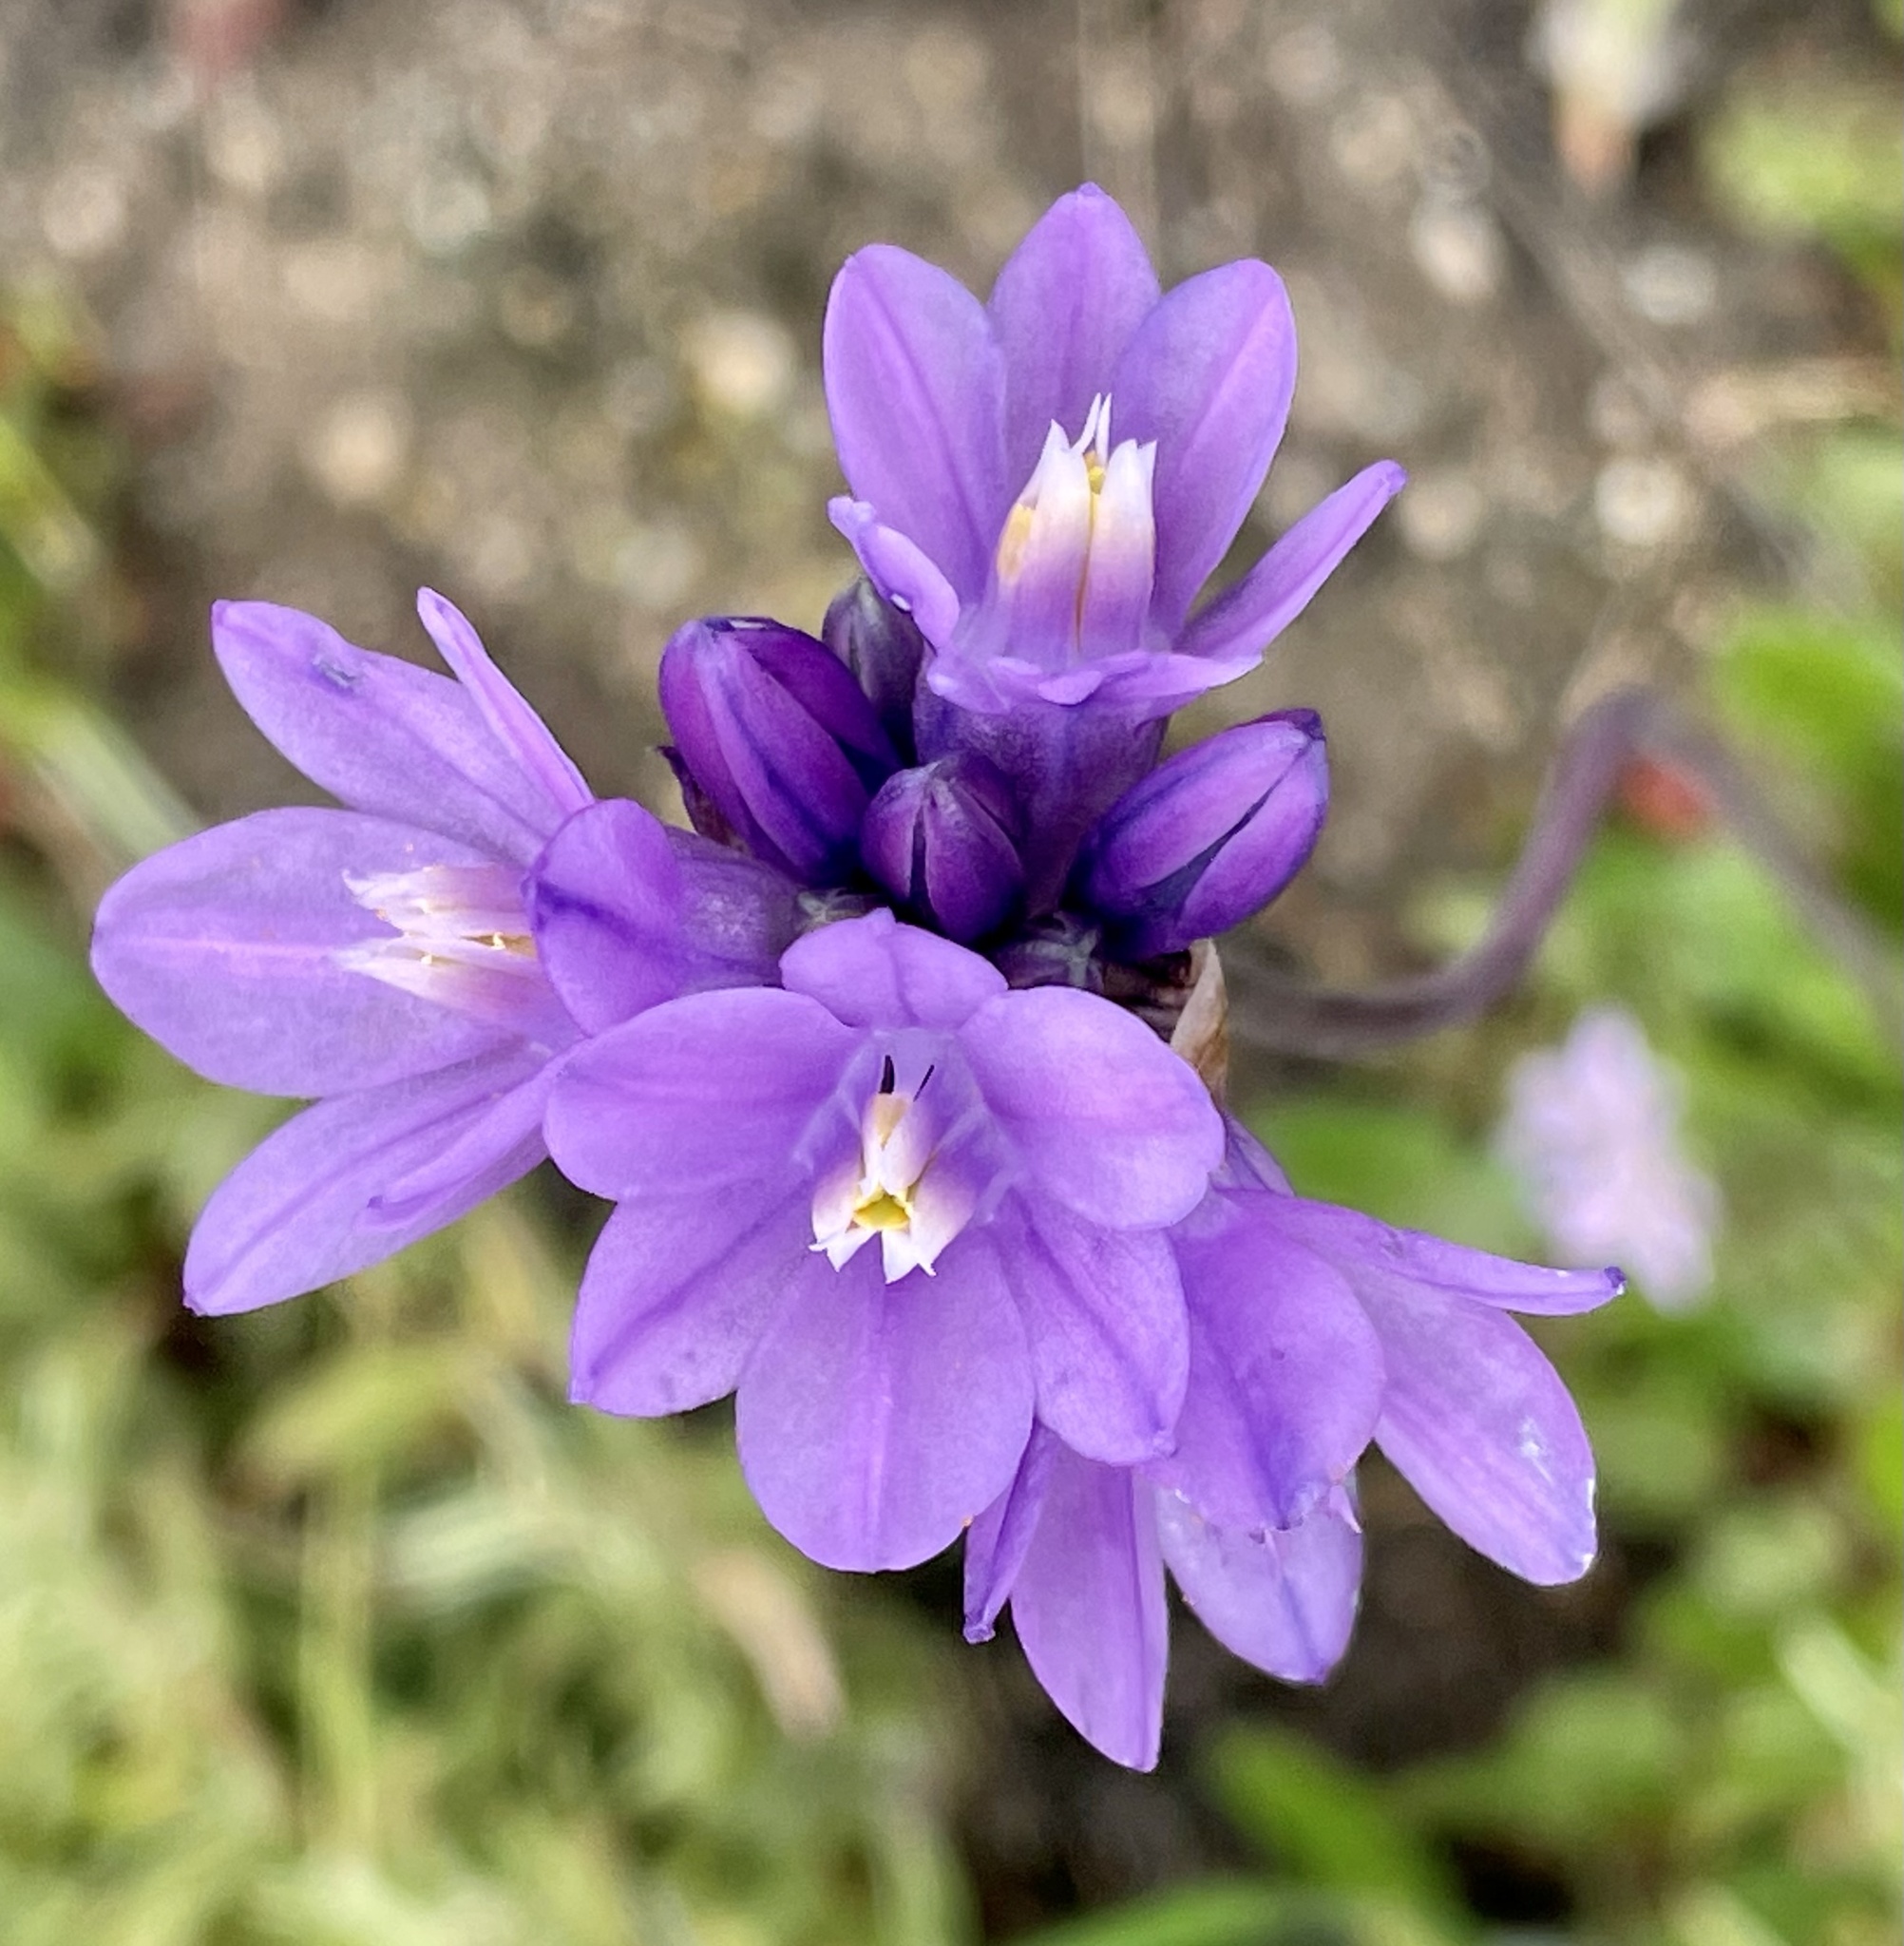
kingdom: Plantae
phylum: Tracheophyta
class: Liliopsida
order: Asparagales
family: Asparagaceae
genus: Dipterostemon
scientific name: Dipterostemon capitatus
